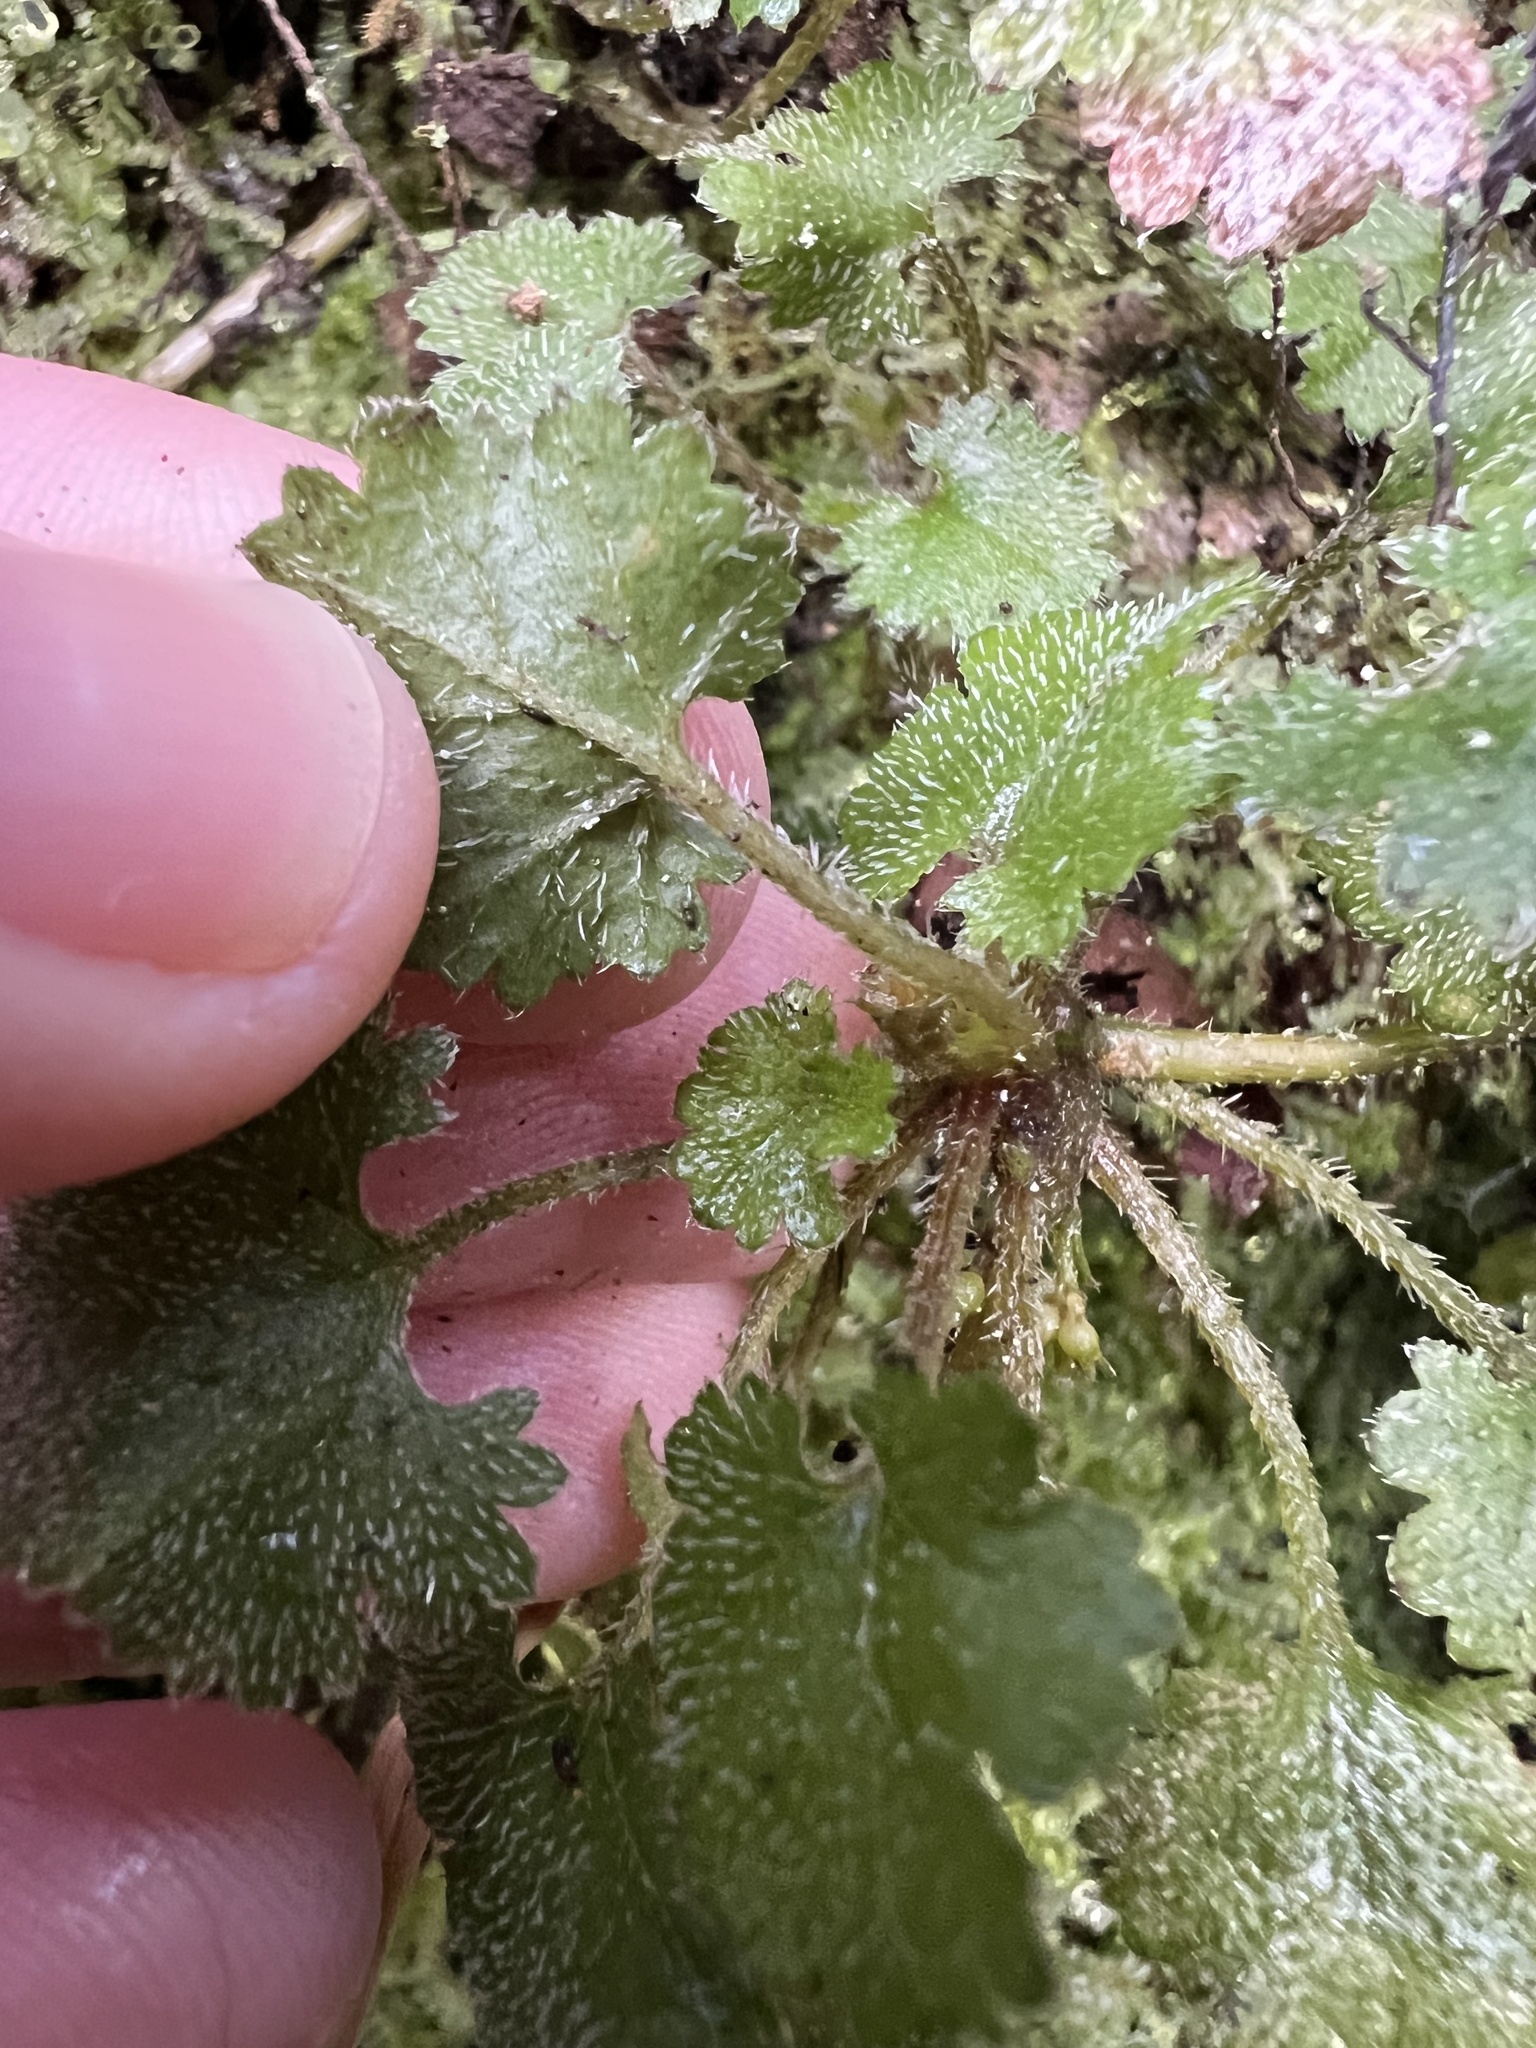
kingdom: Plantae
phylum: Tracheophyta
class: Magnoliopsida
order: Gunnerales
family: Gunneraceae
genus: Gunnera
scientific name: Gunnera monoica
